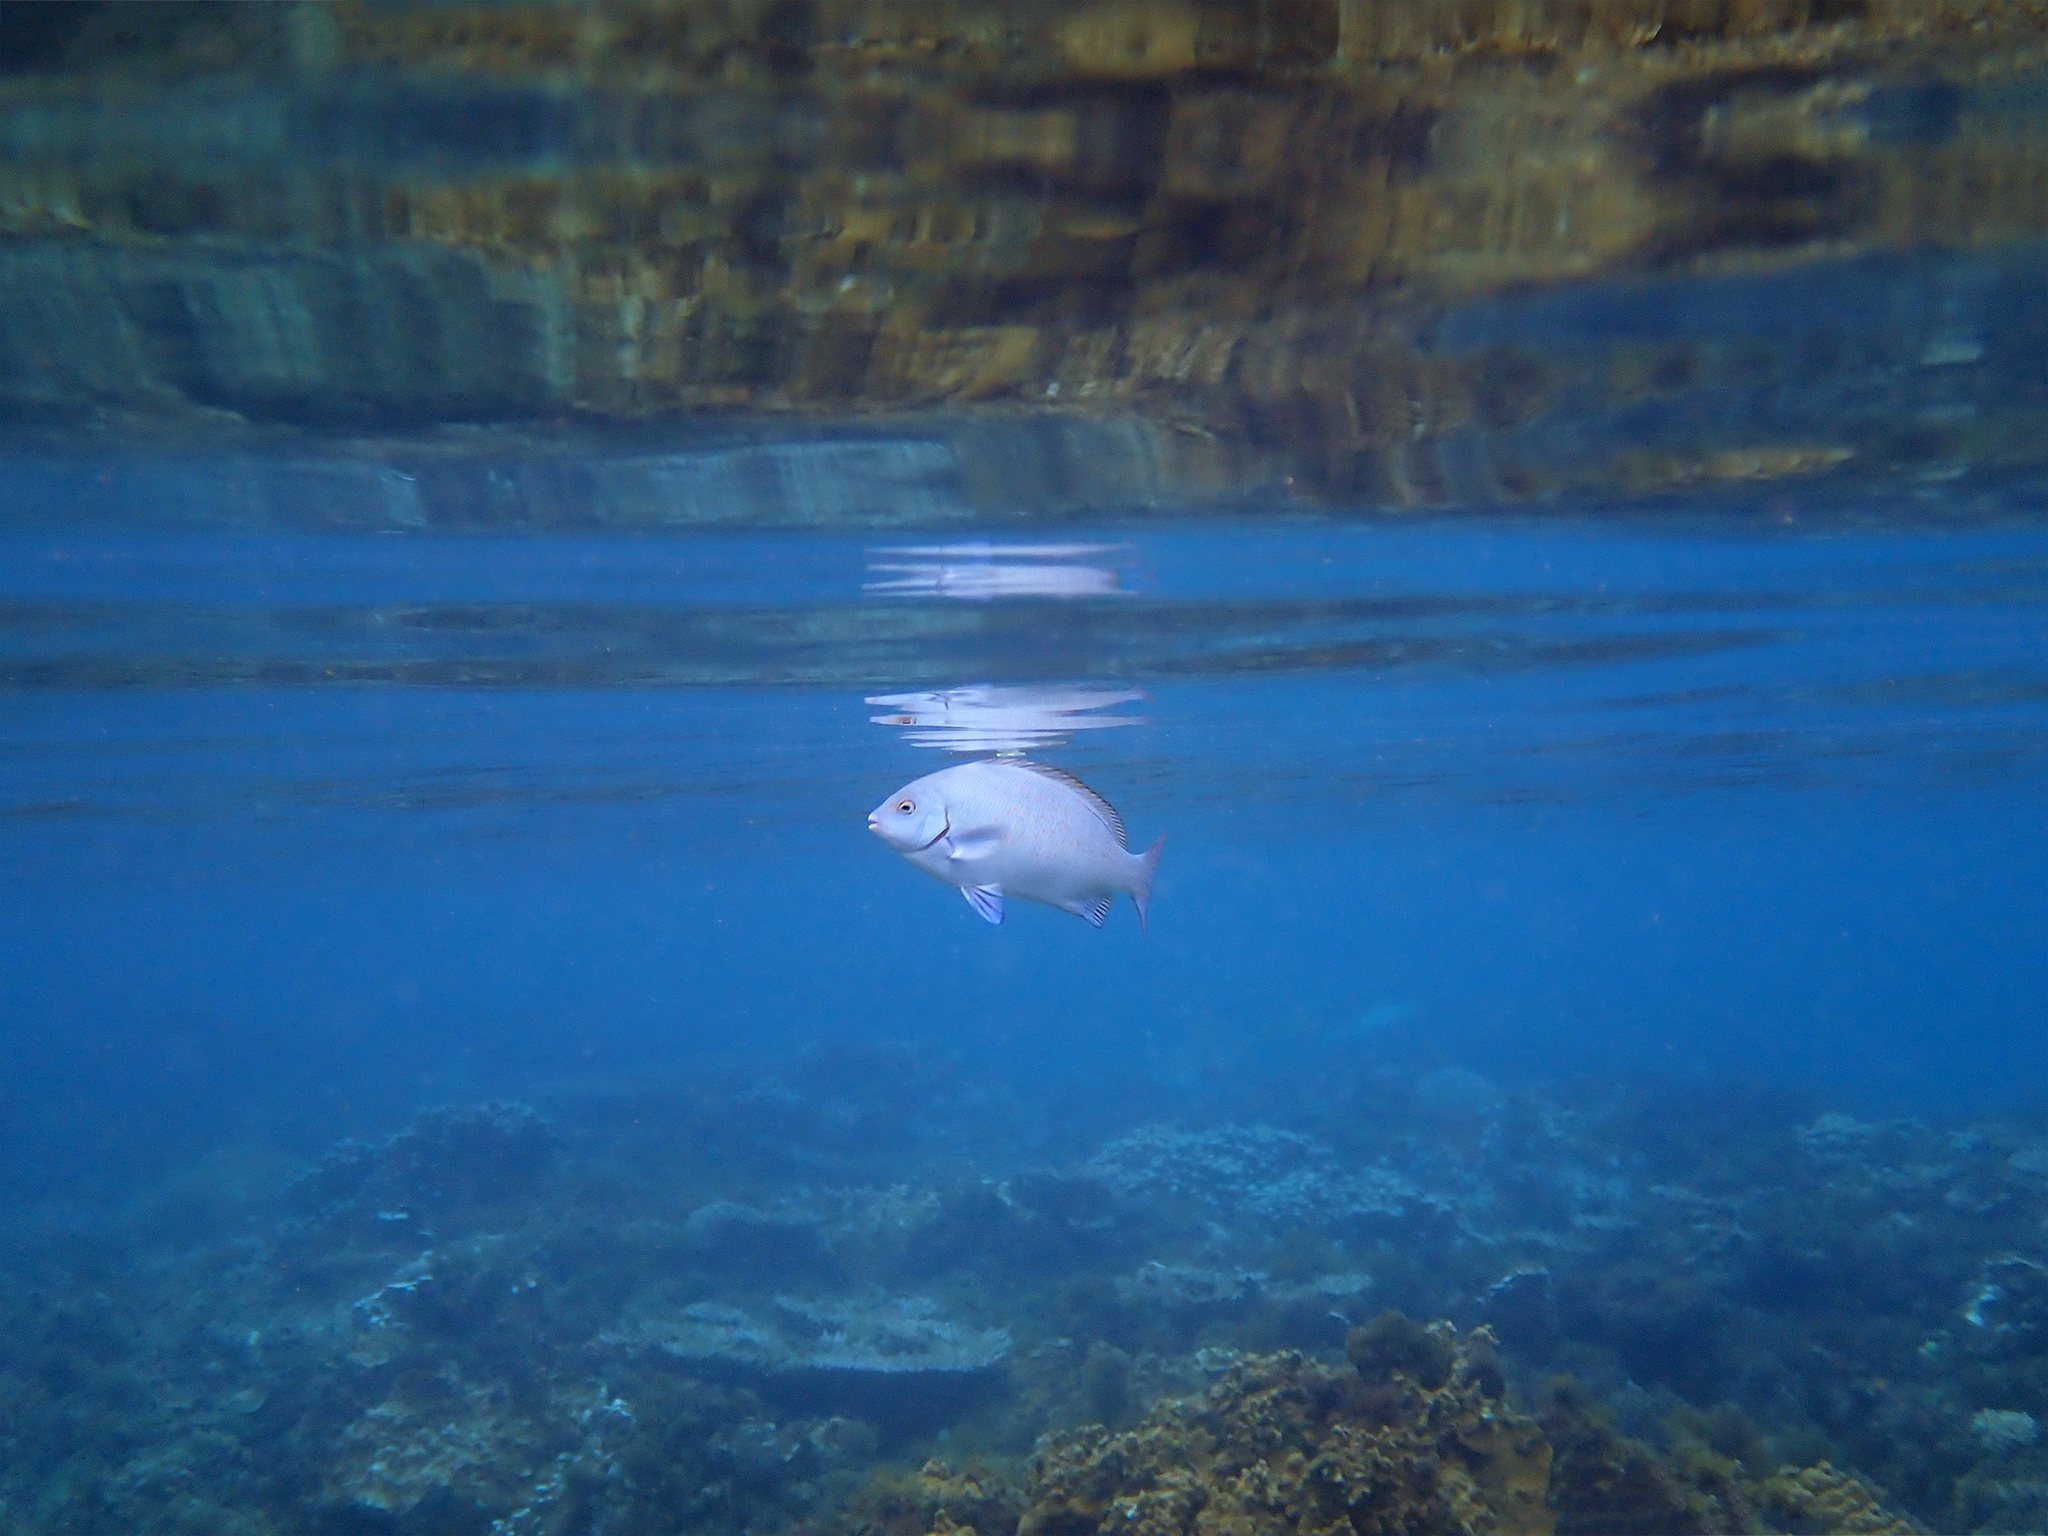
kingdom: Animalia
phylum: Chordata
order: Perciformes
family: Kyphosidae
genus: Girella
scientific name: Girella cyanea
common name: Bluefish
